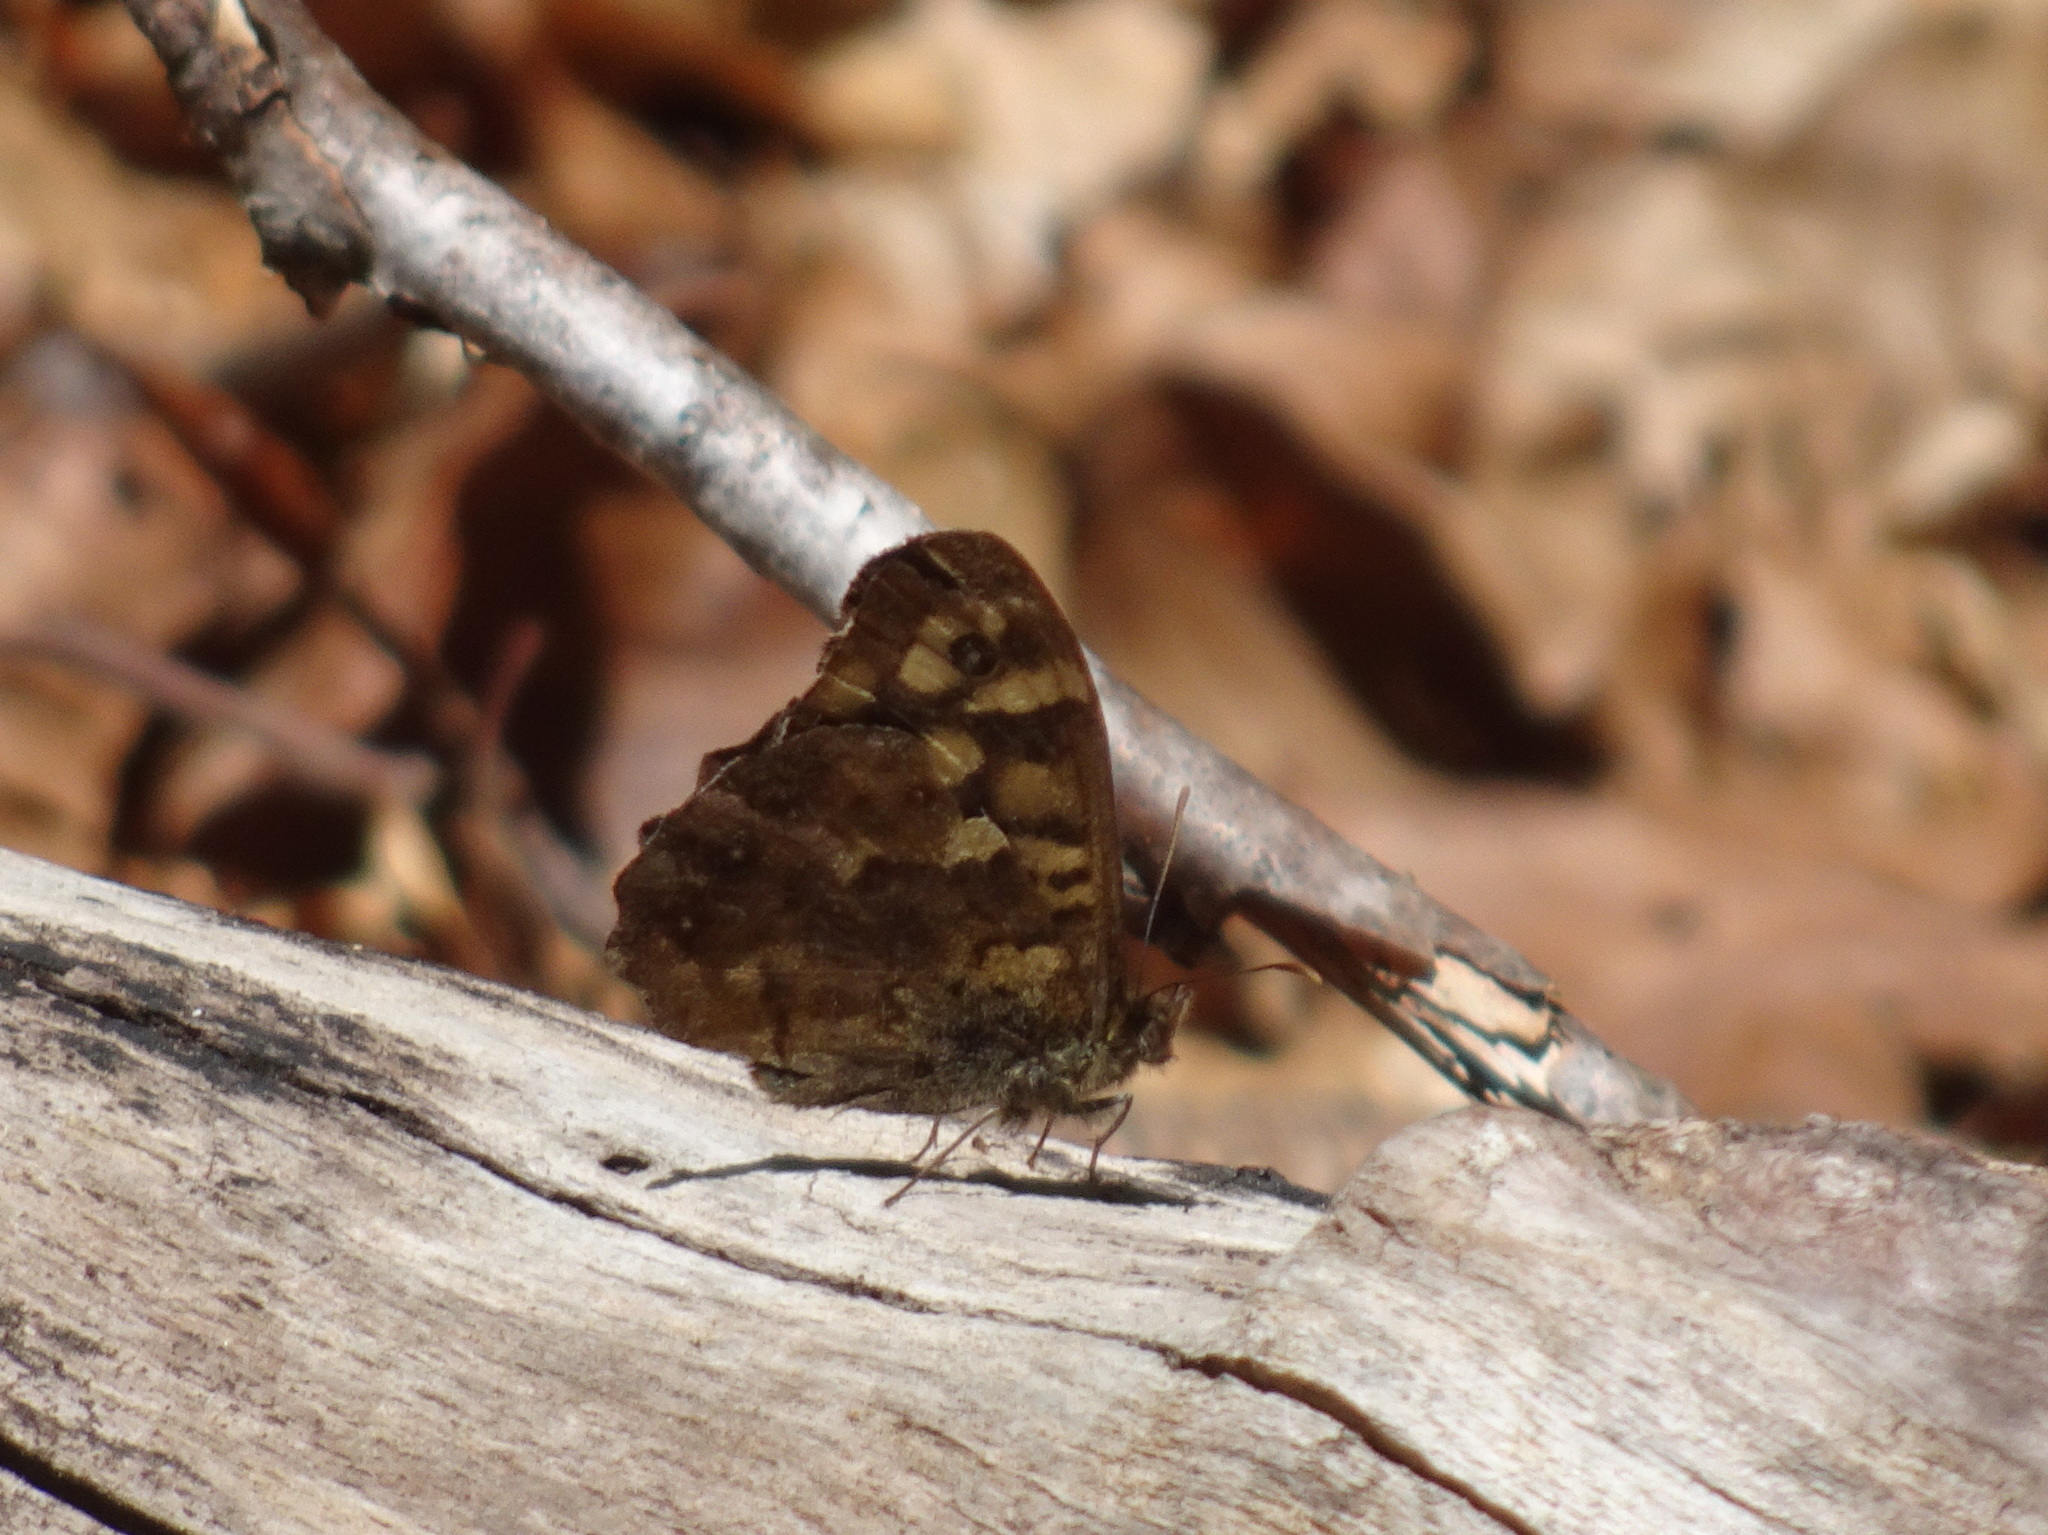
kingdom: Animalia
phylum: Arthropoda
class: Insecta
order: Lepidoptera
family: Nymphalidae
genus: Pararge
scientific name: Pararge aegeria
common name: Speckled wood
